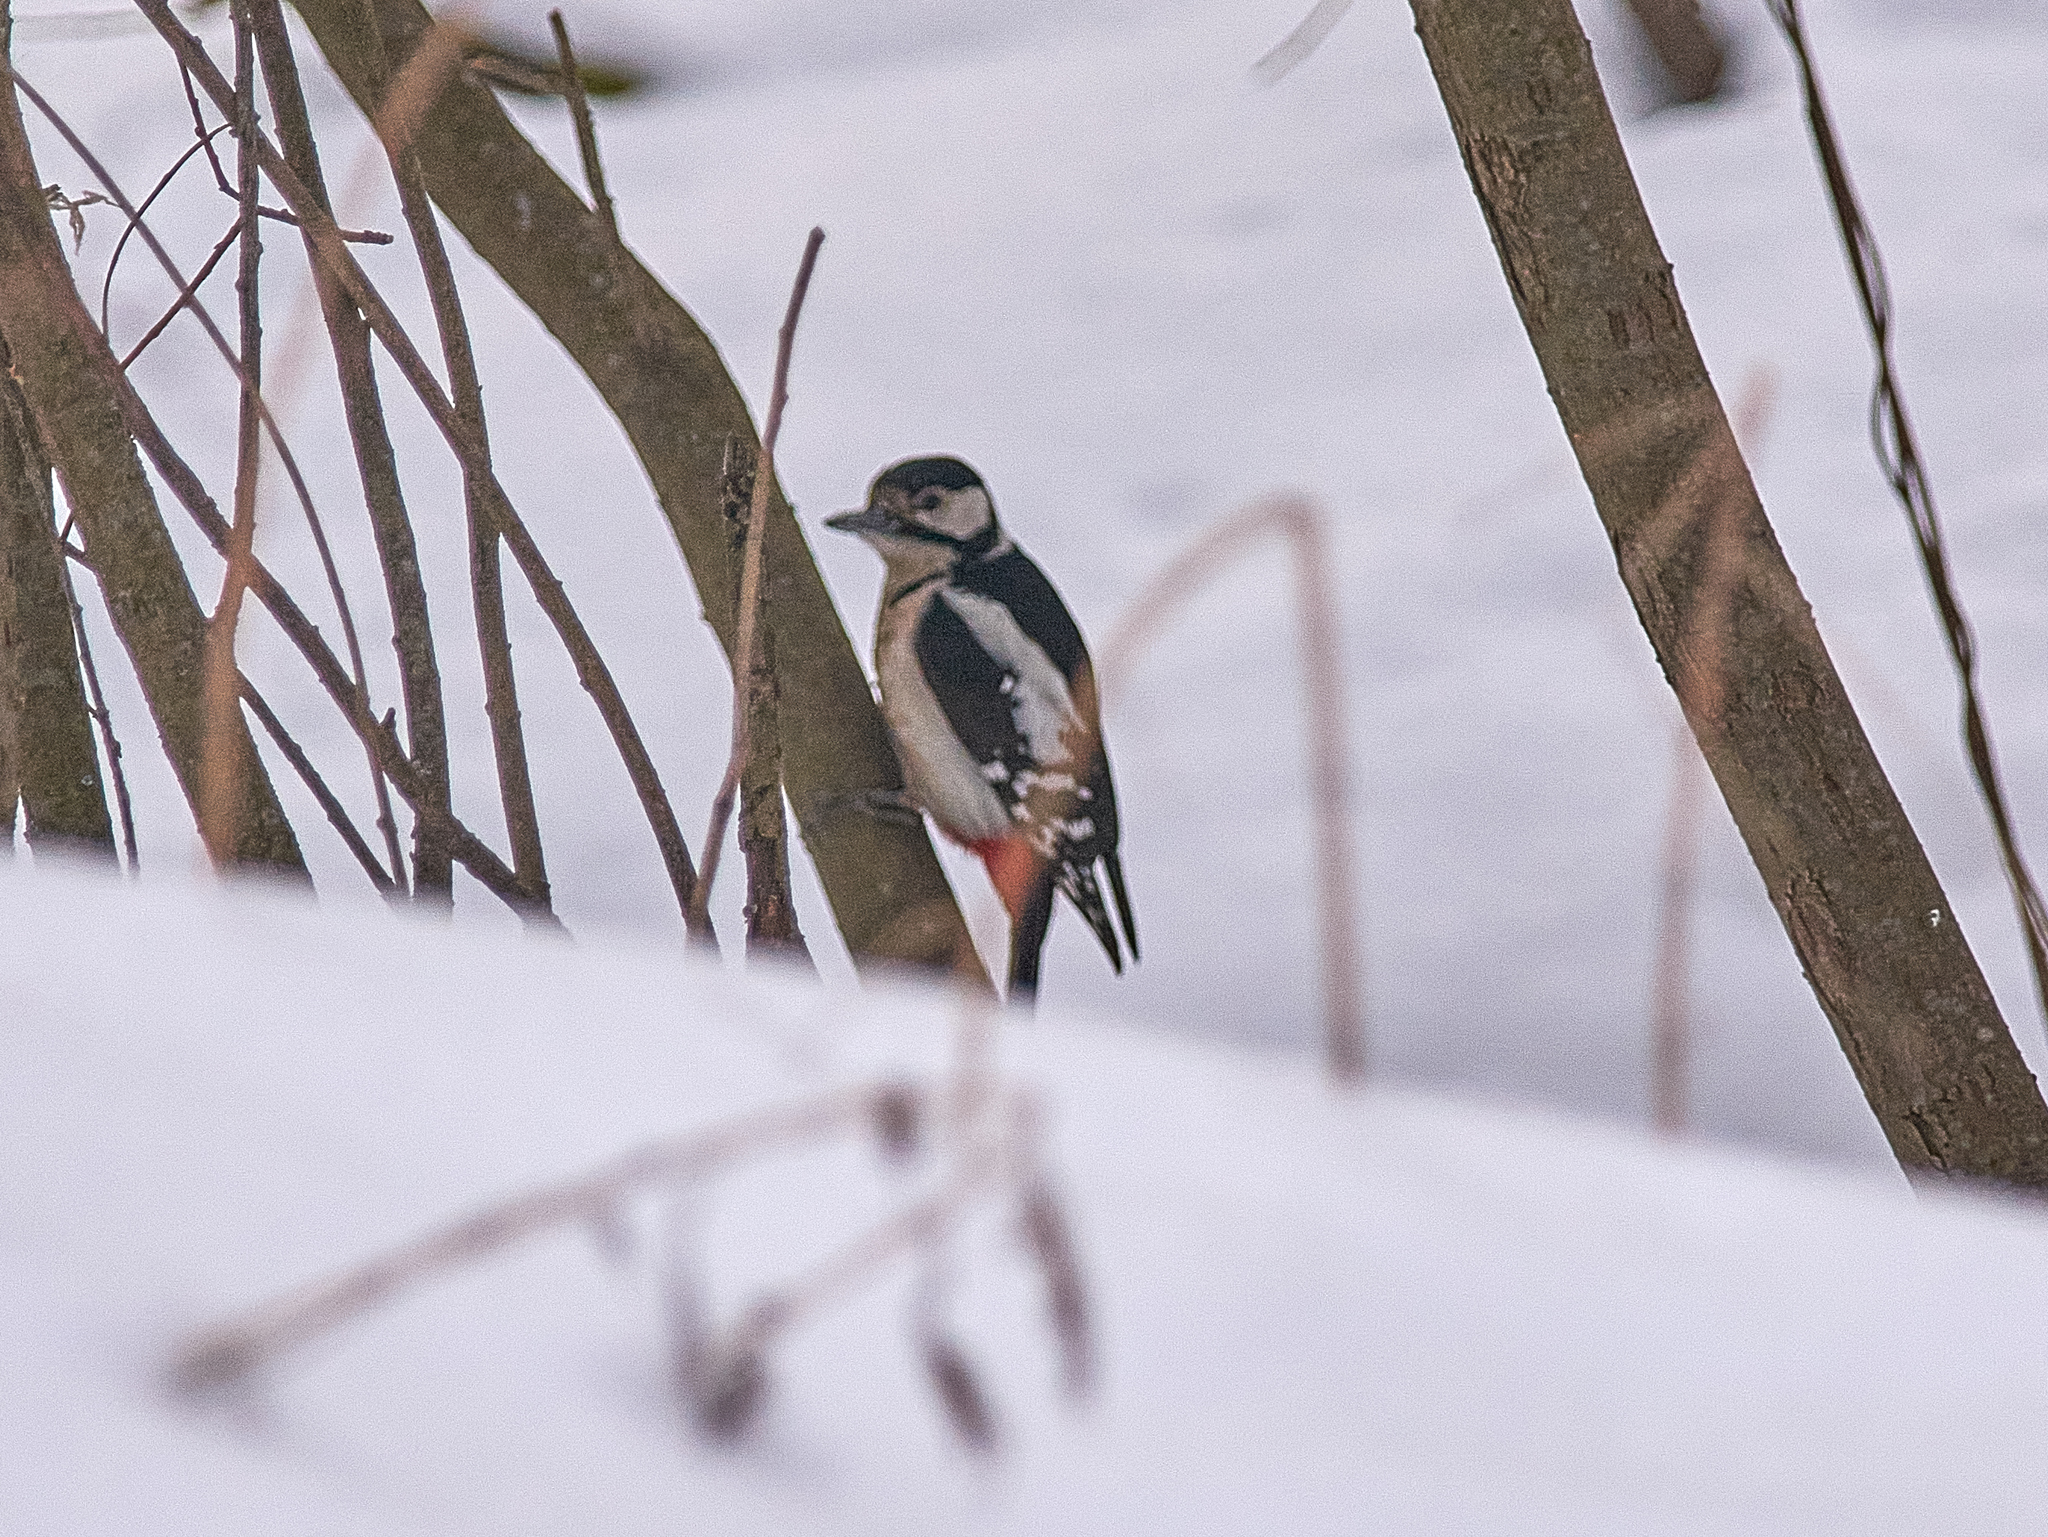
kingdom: Animalia
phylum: Chordata
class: Aves
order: Piciformes
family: Picidae
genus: Dendrocopos
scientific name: Dendrocopos major
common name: Great spotted woodpecker
